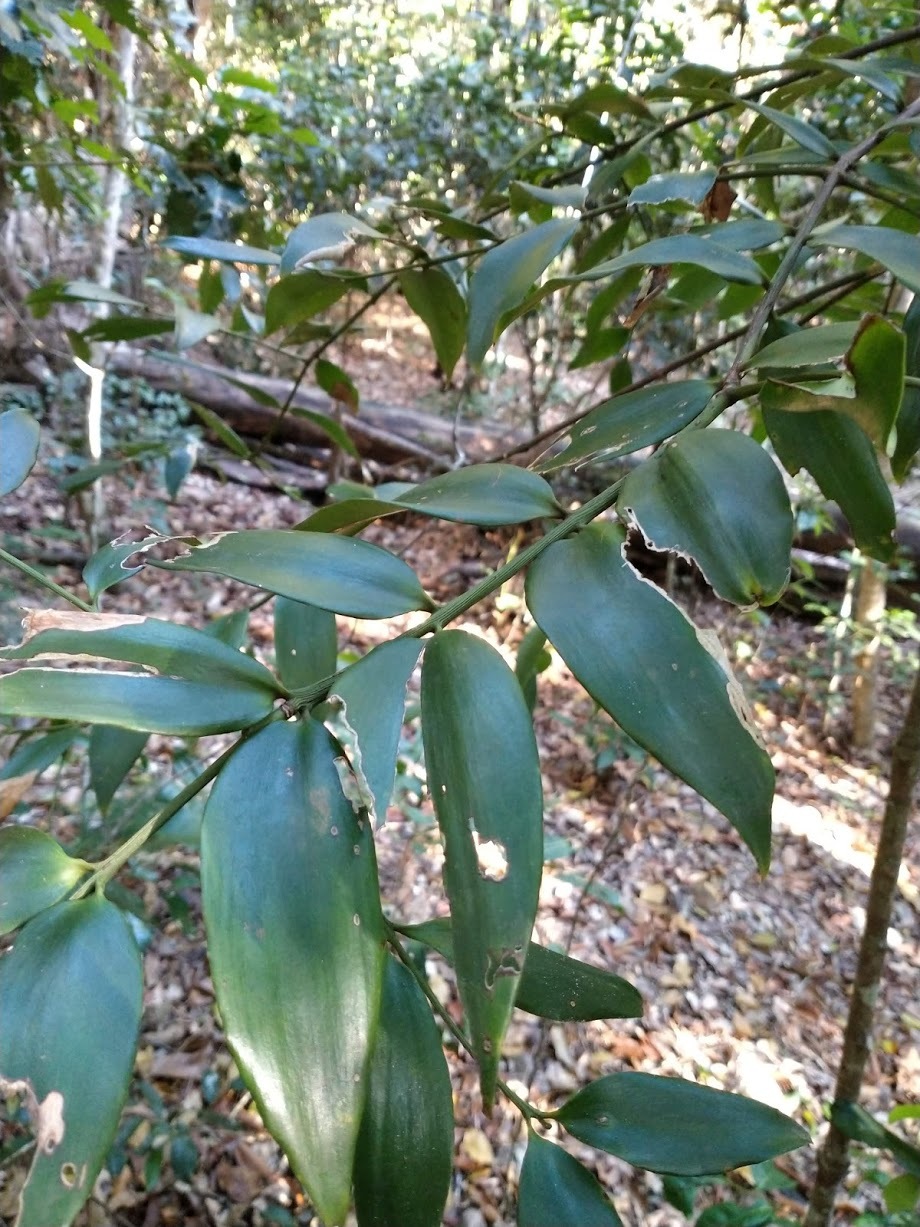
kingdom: Plantae
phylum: Tracheophyta
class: Pinopsida
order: Pinales
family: Araucariaceae
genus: Agathis
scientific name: Agathis robusta
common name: Australian-kauri
